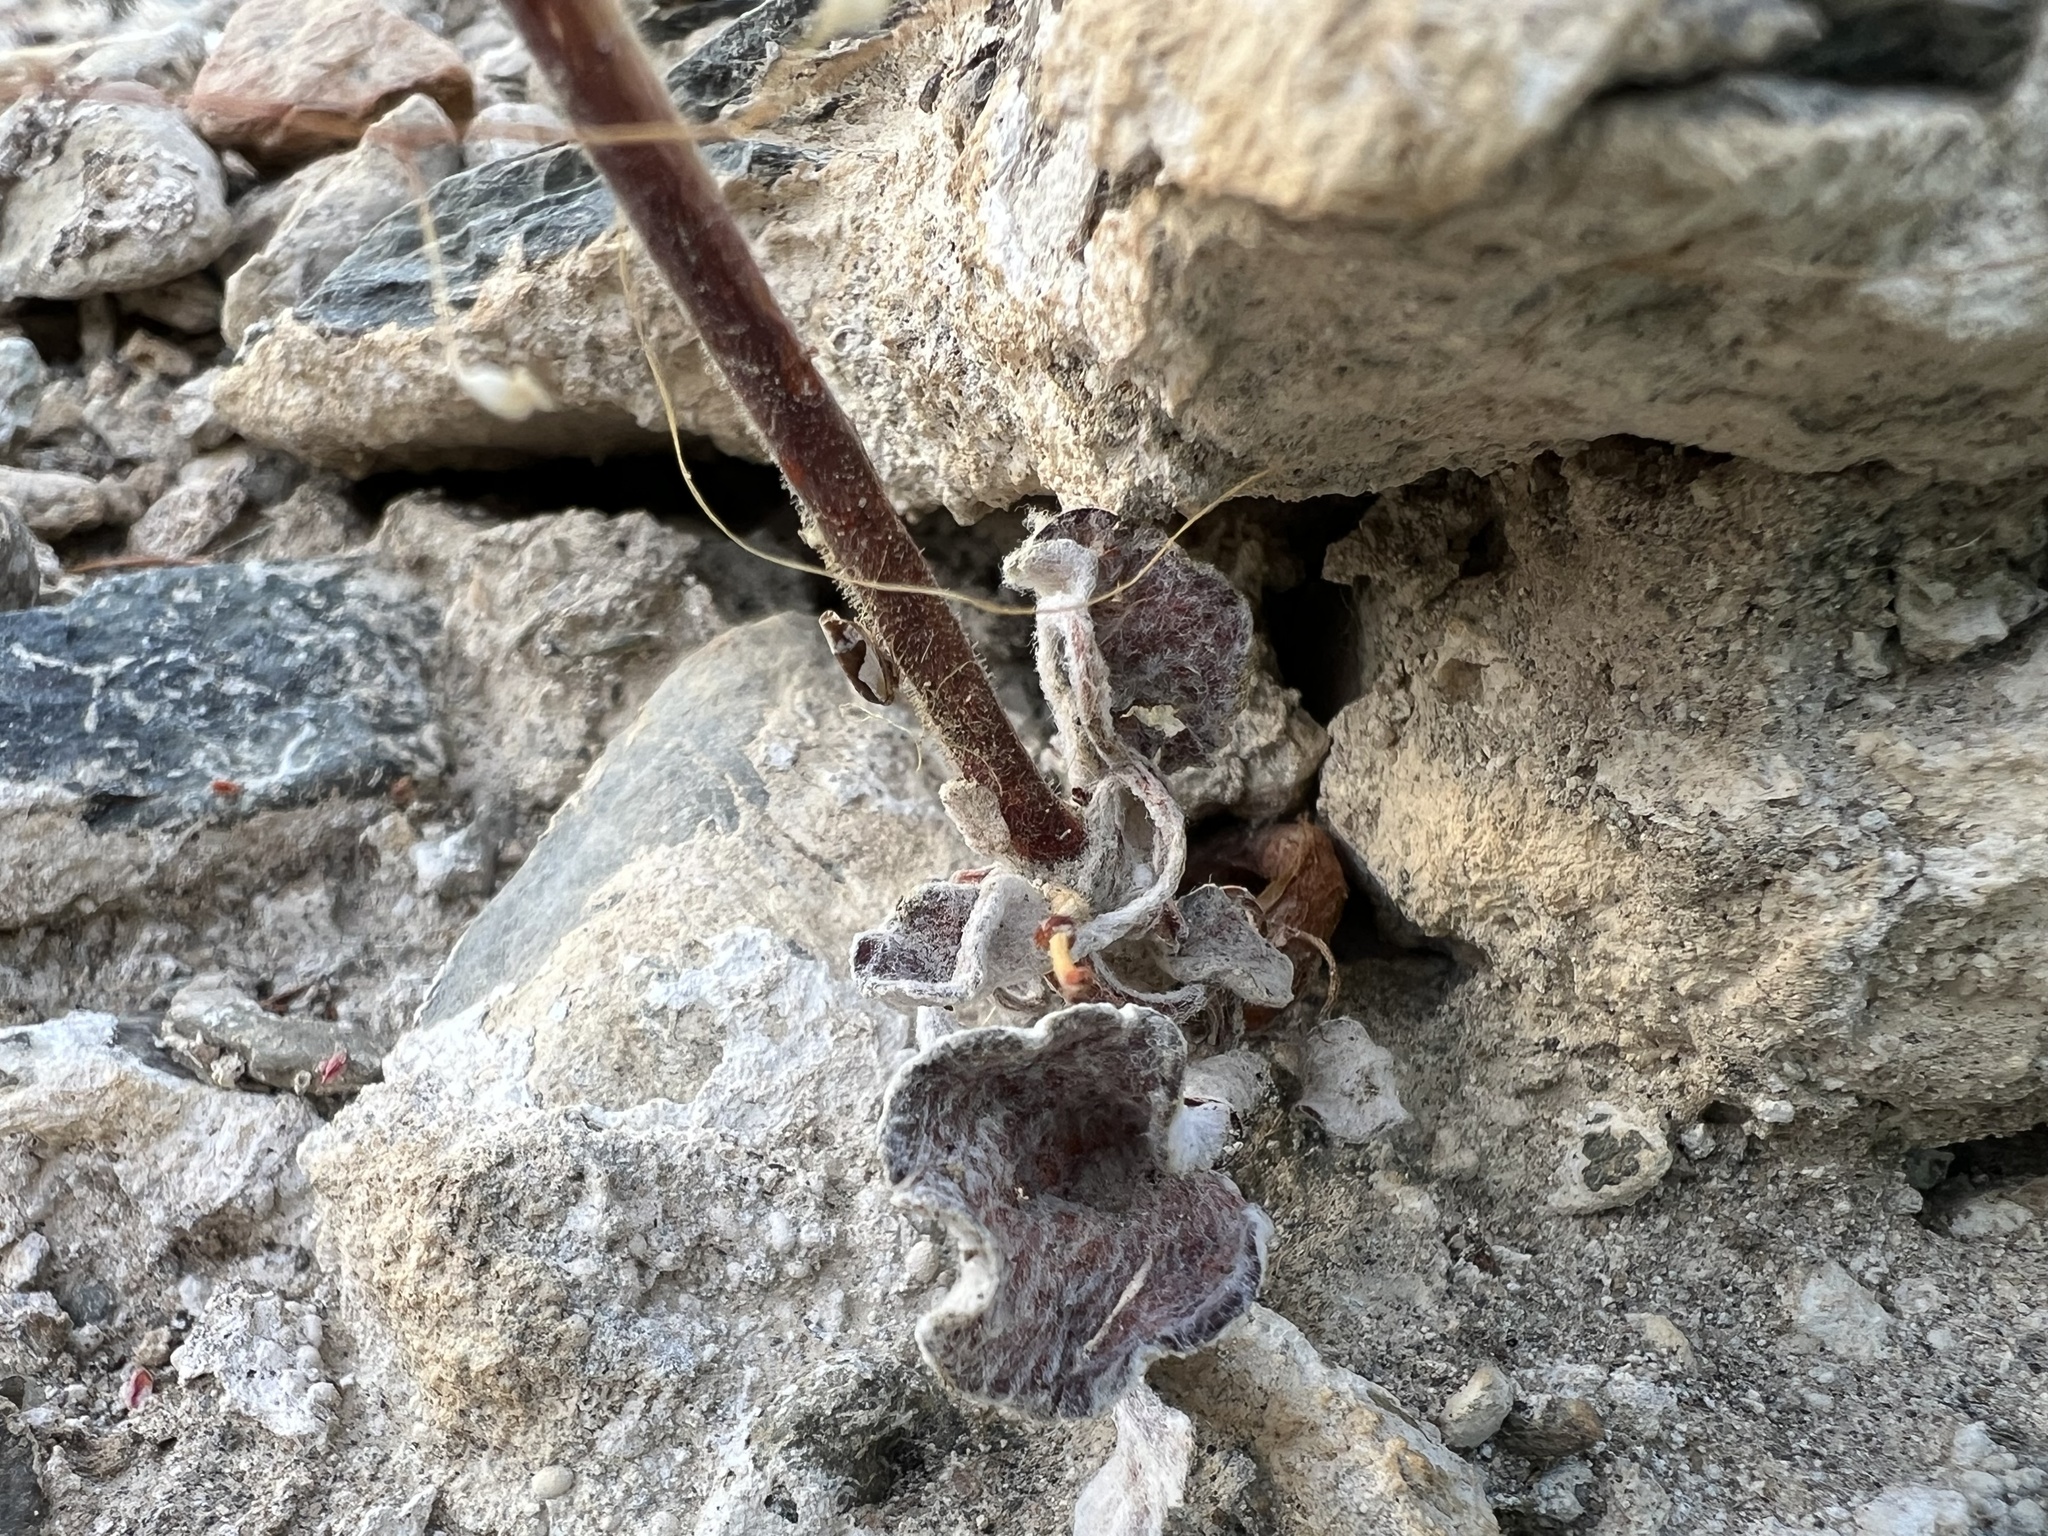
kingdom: Plantae
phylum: Tracheophyta
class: Magnoliopsida
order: Caryophyllales
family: Polygonaceae
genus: Eriogonum
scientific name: Eriogonum brachypodum
